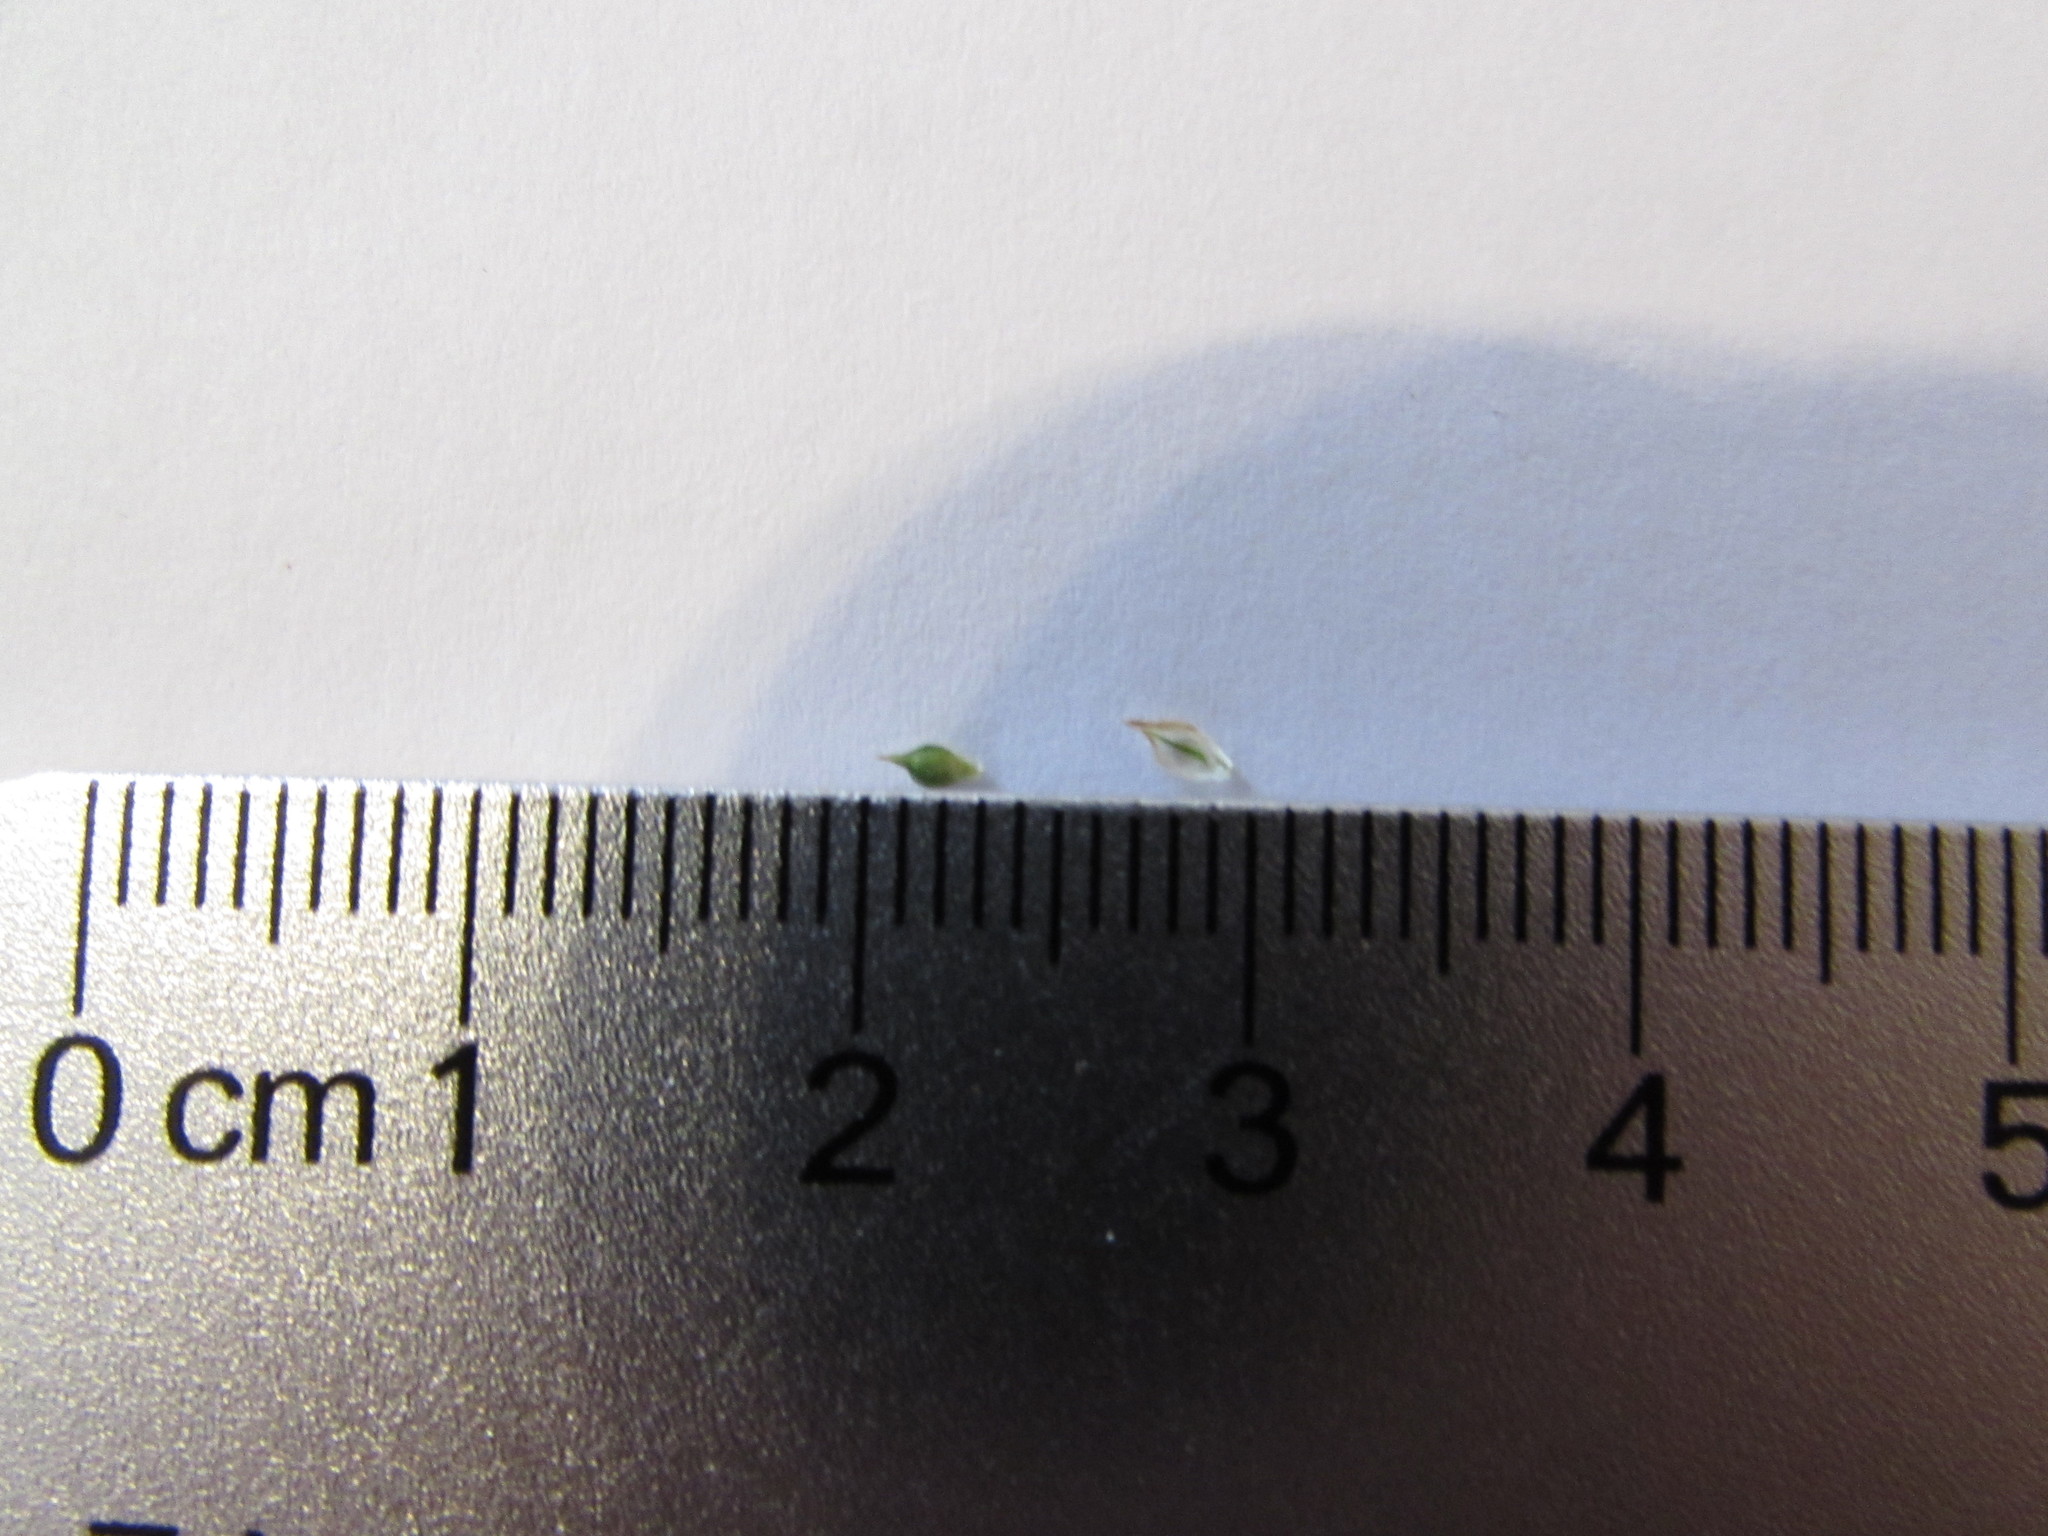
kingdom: Plantae
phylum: Tracheophyta
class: Liliopsida
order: Poales
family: Cyperaceae
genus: Carex
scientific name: Carex umbellata
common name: Early oak sedge
